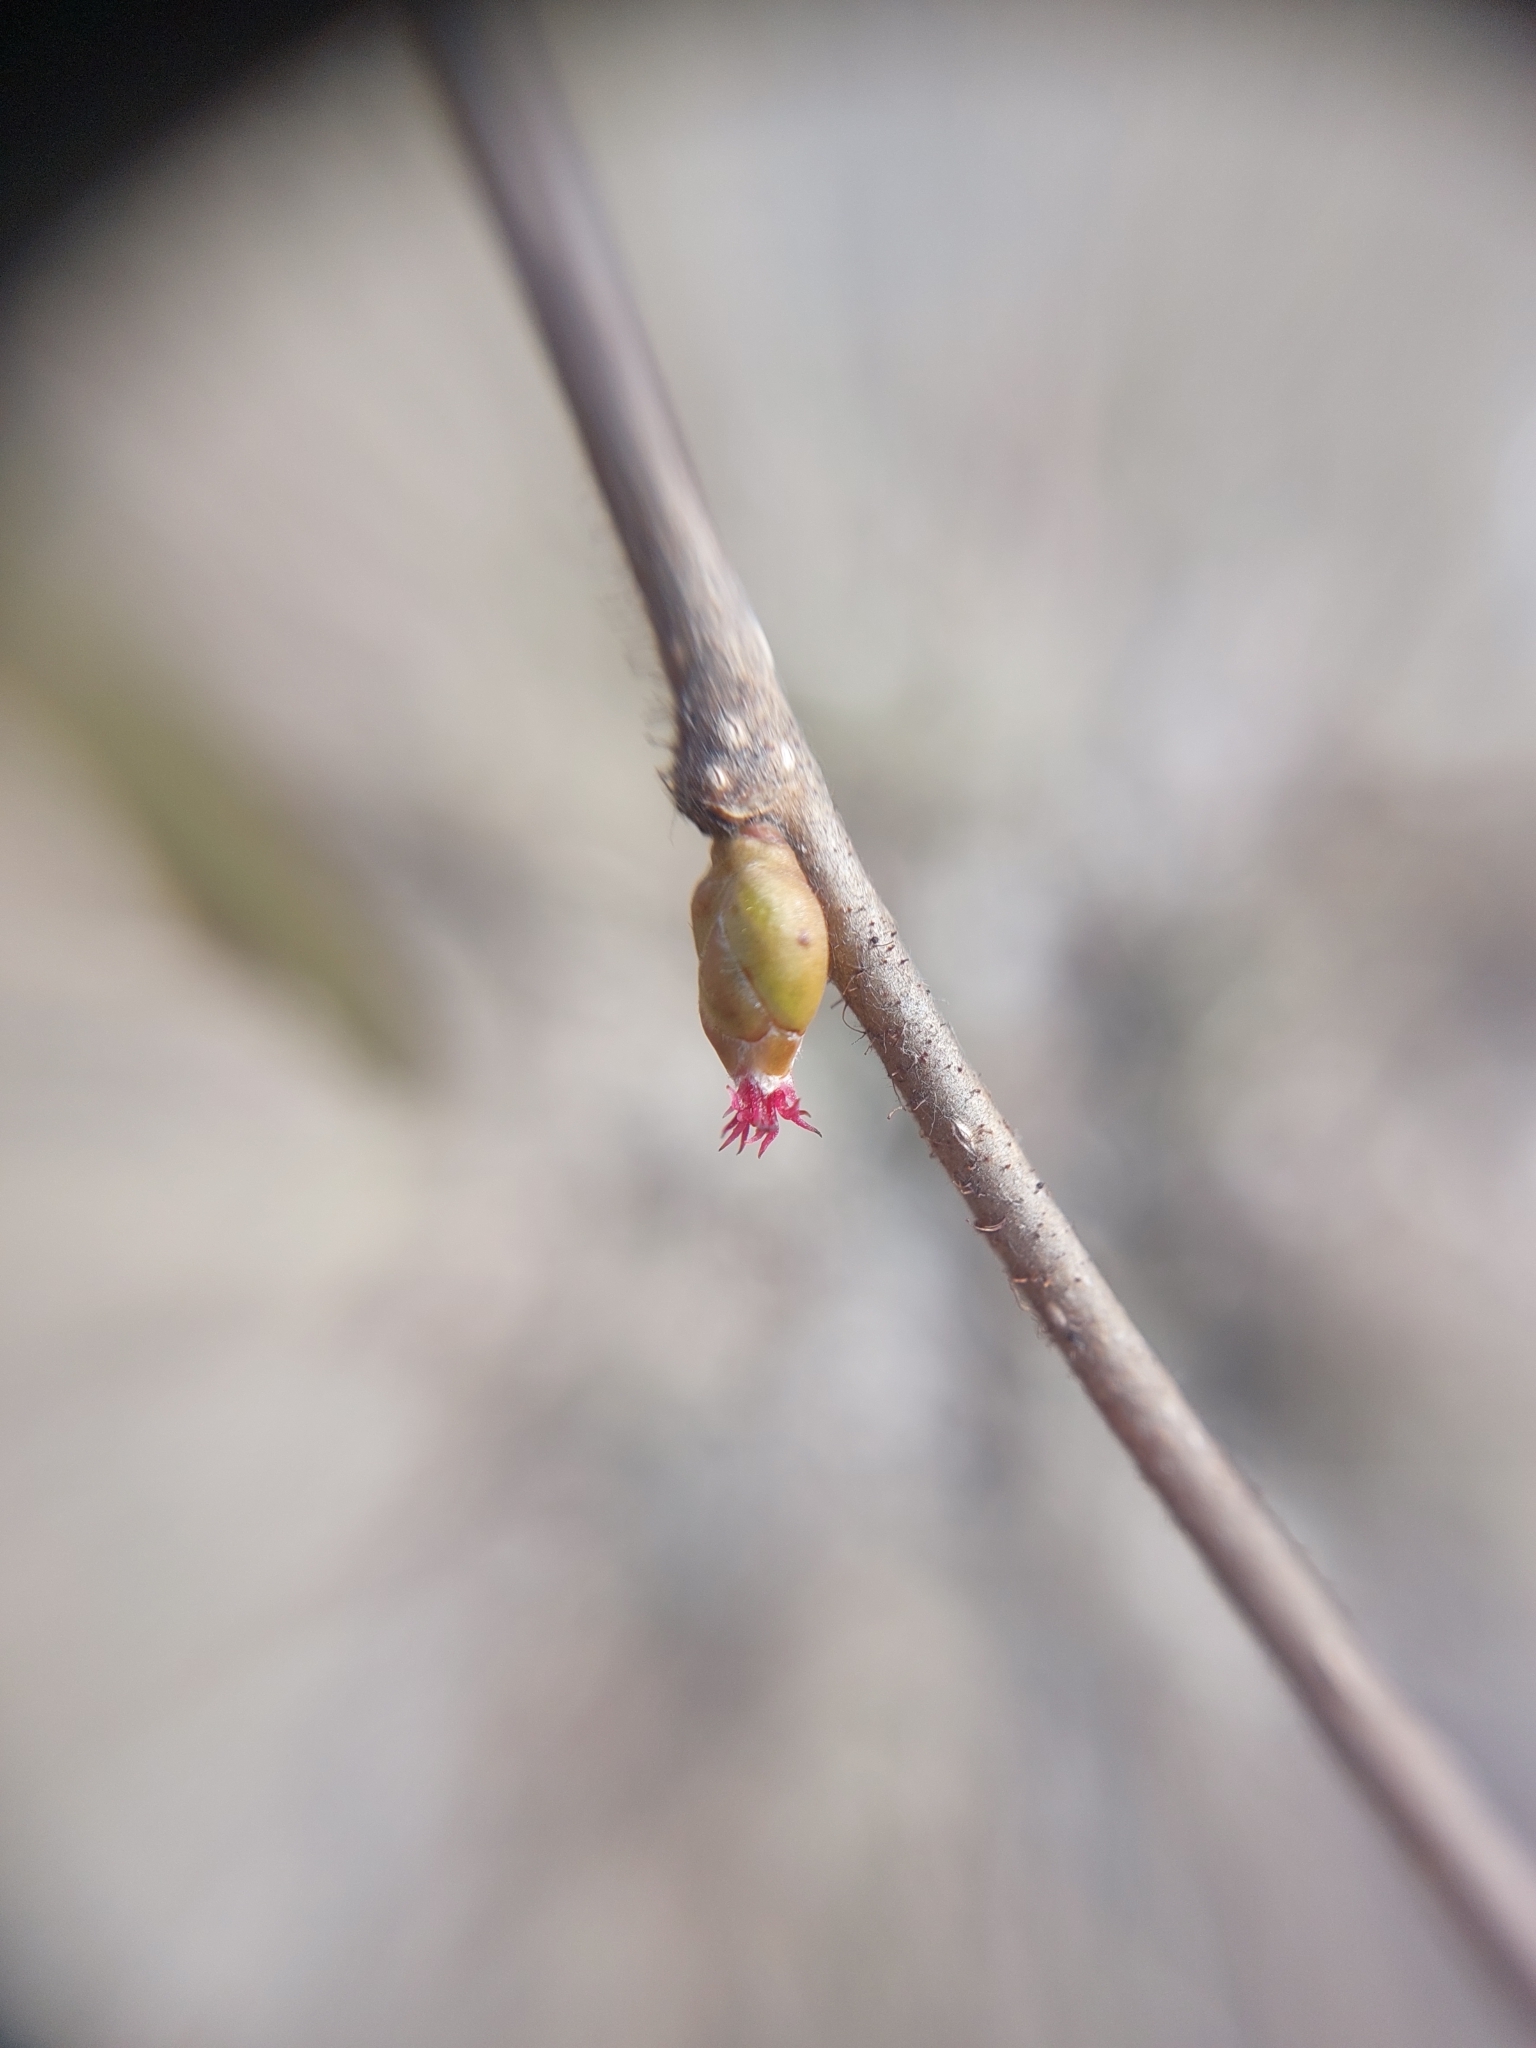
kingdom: Plantae
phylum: Tracheophyta
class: Magnoliopsida
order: Fagales
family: Betulaceae
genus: Corylus
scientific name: Corylus avellana
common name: European hazel
